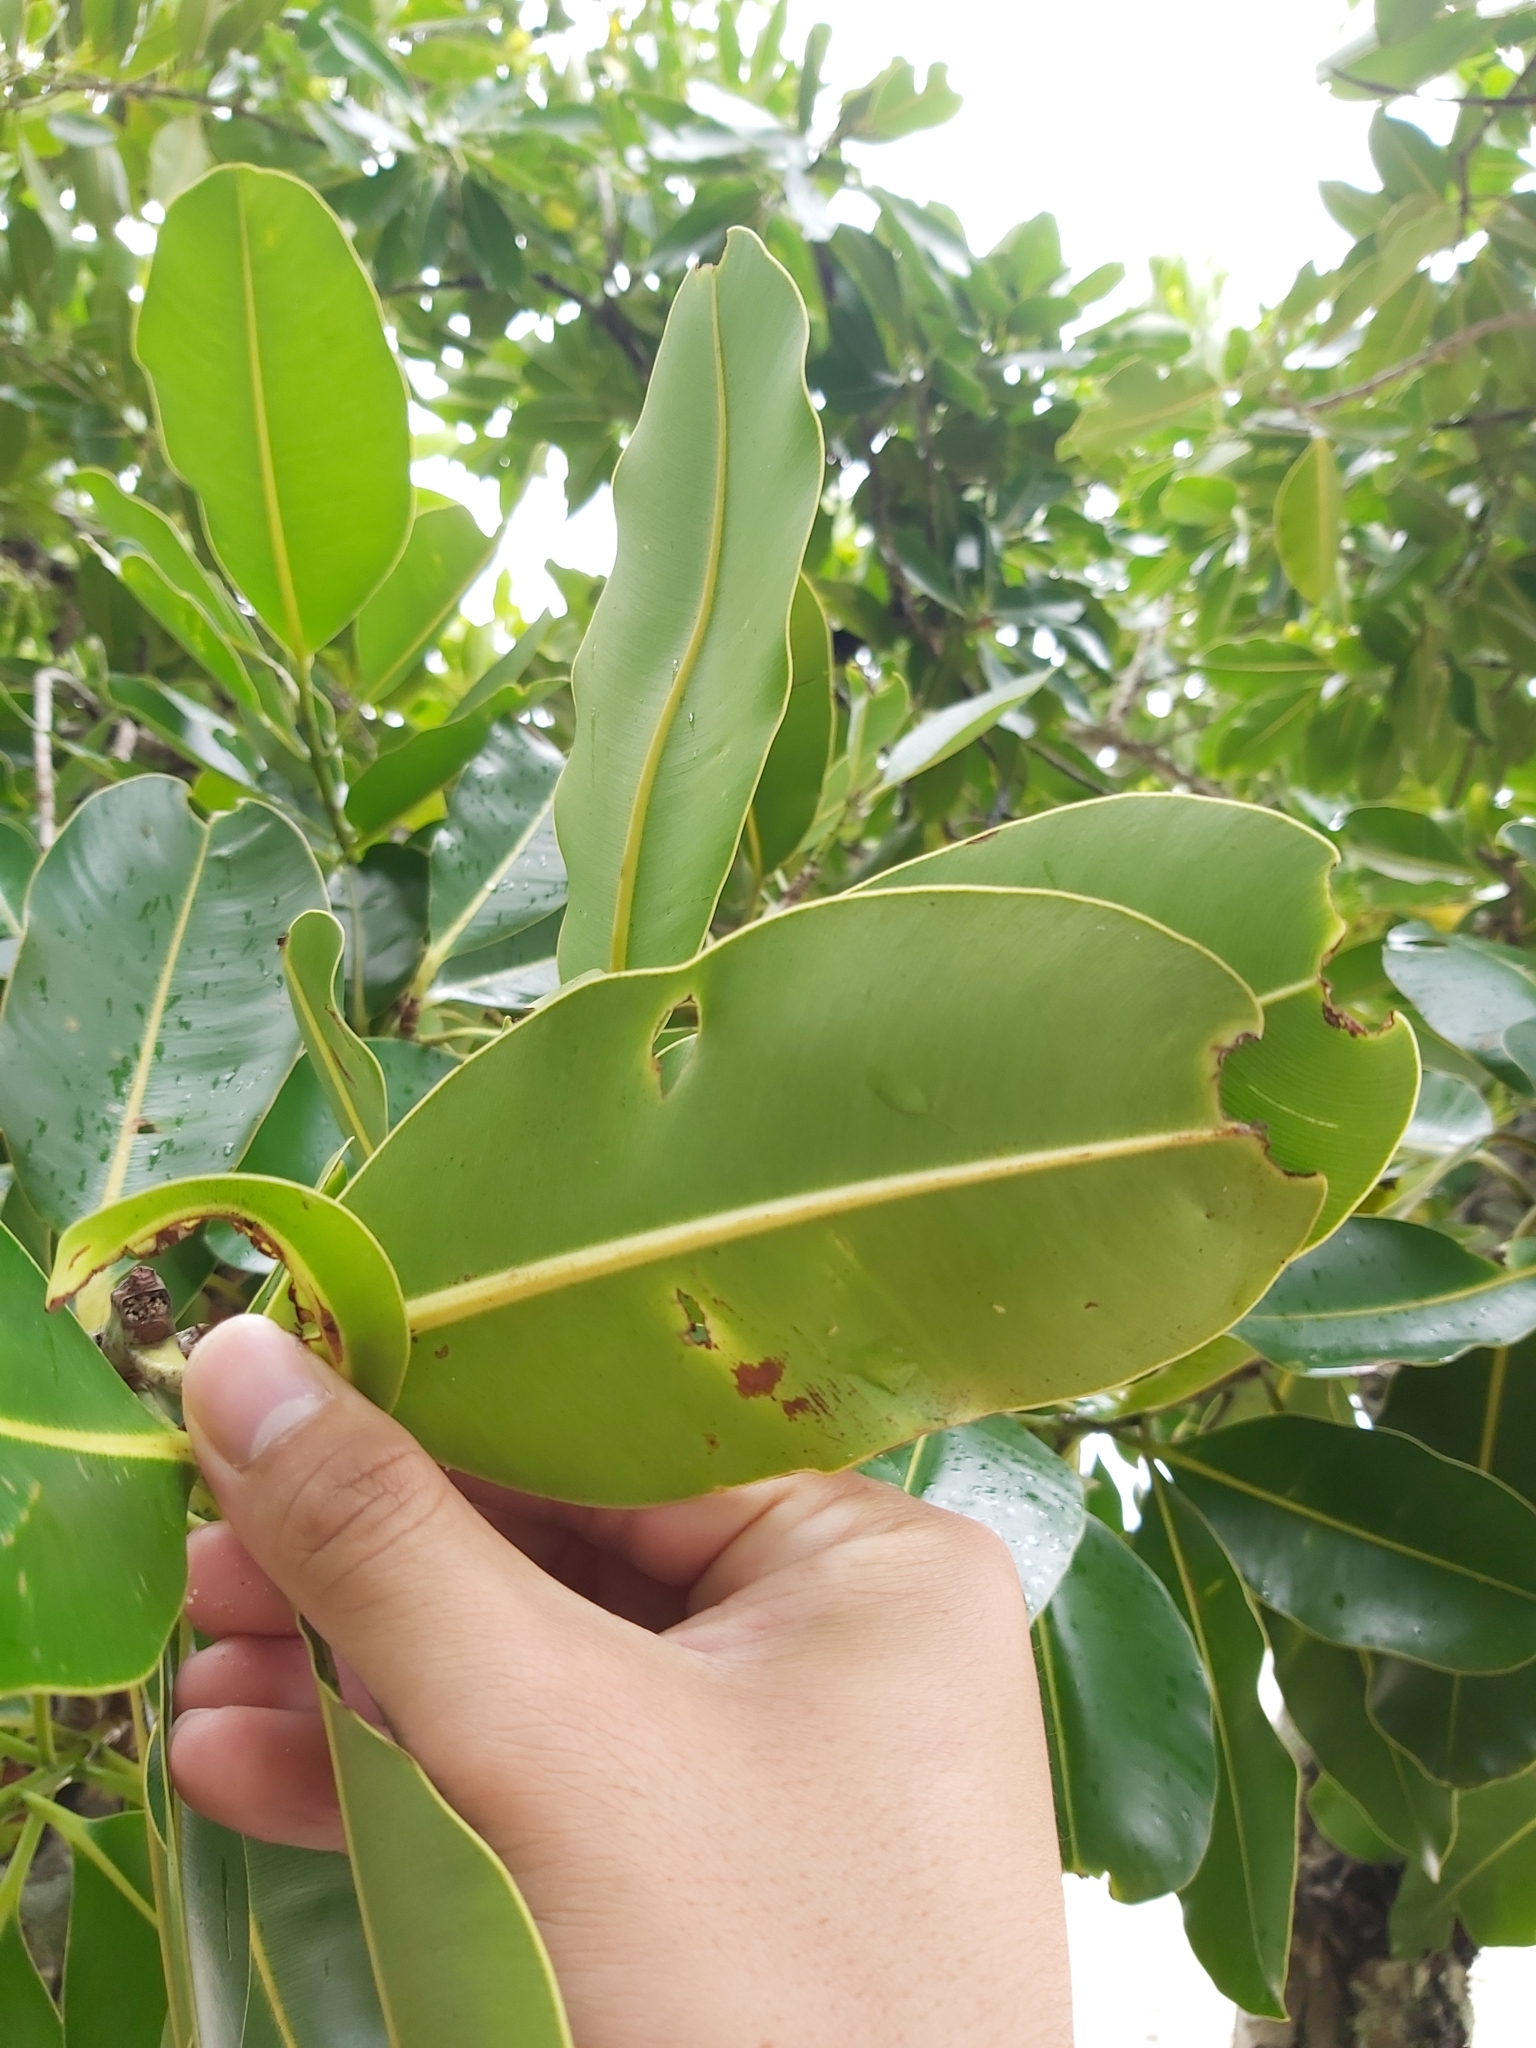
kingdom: Plantae
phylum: Tracheophyta
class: Magnoliopsida
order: Malpighiales
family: Calophyllaceae
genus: Calophyllum
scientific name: Calophyllum inophyllum
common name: Alexandrian laurel
